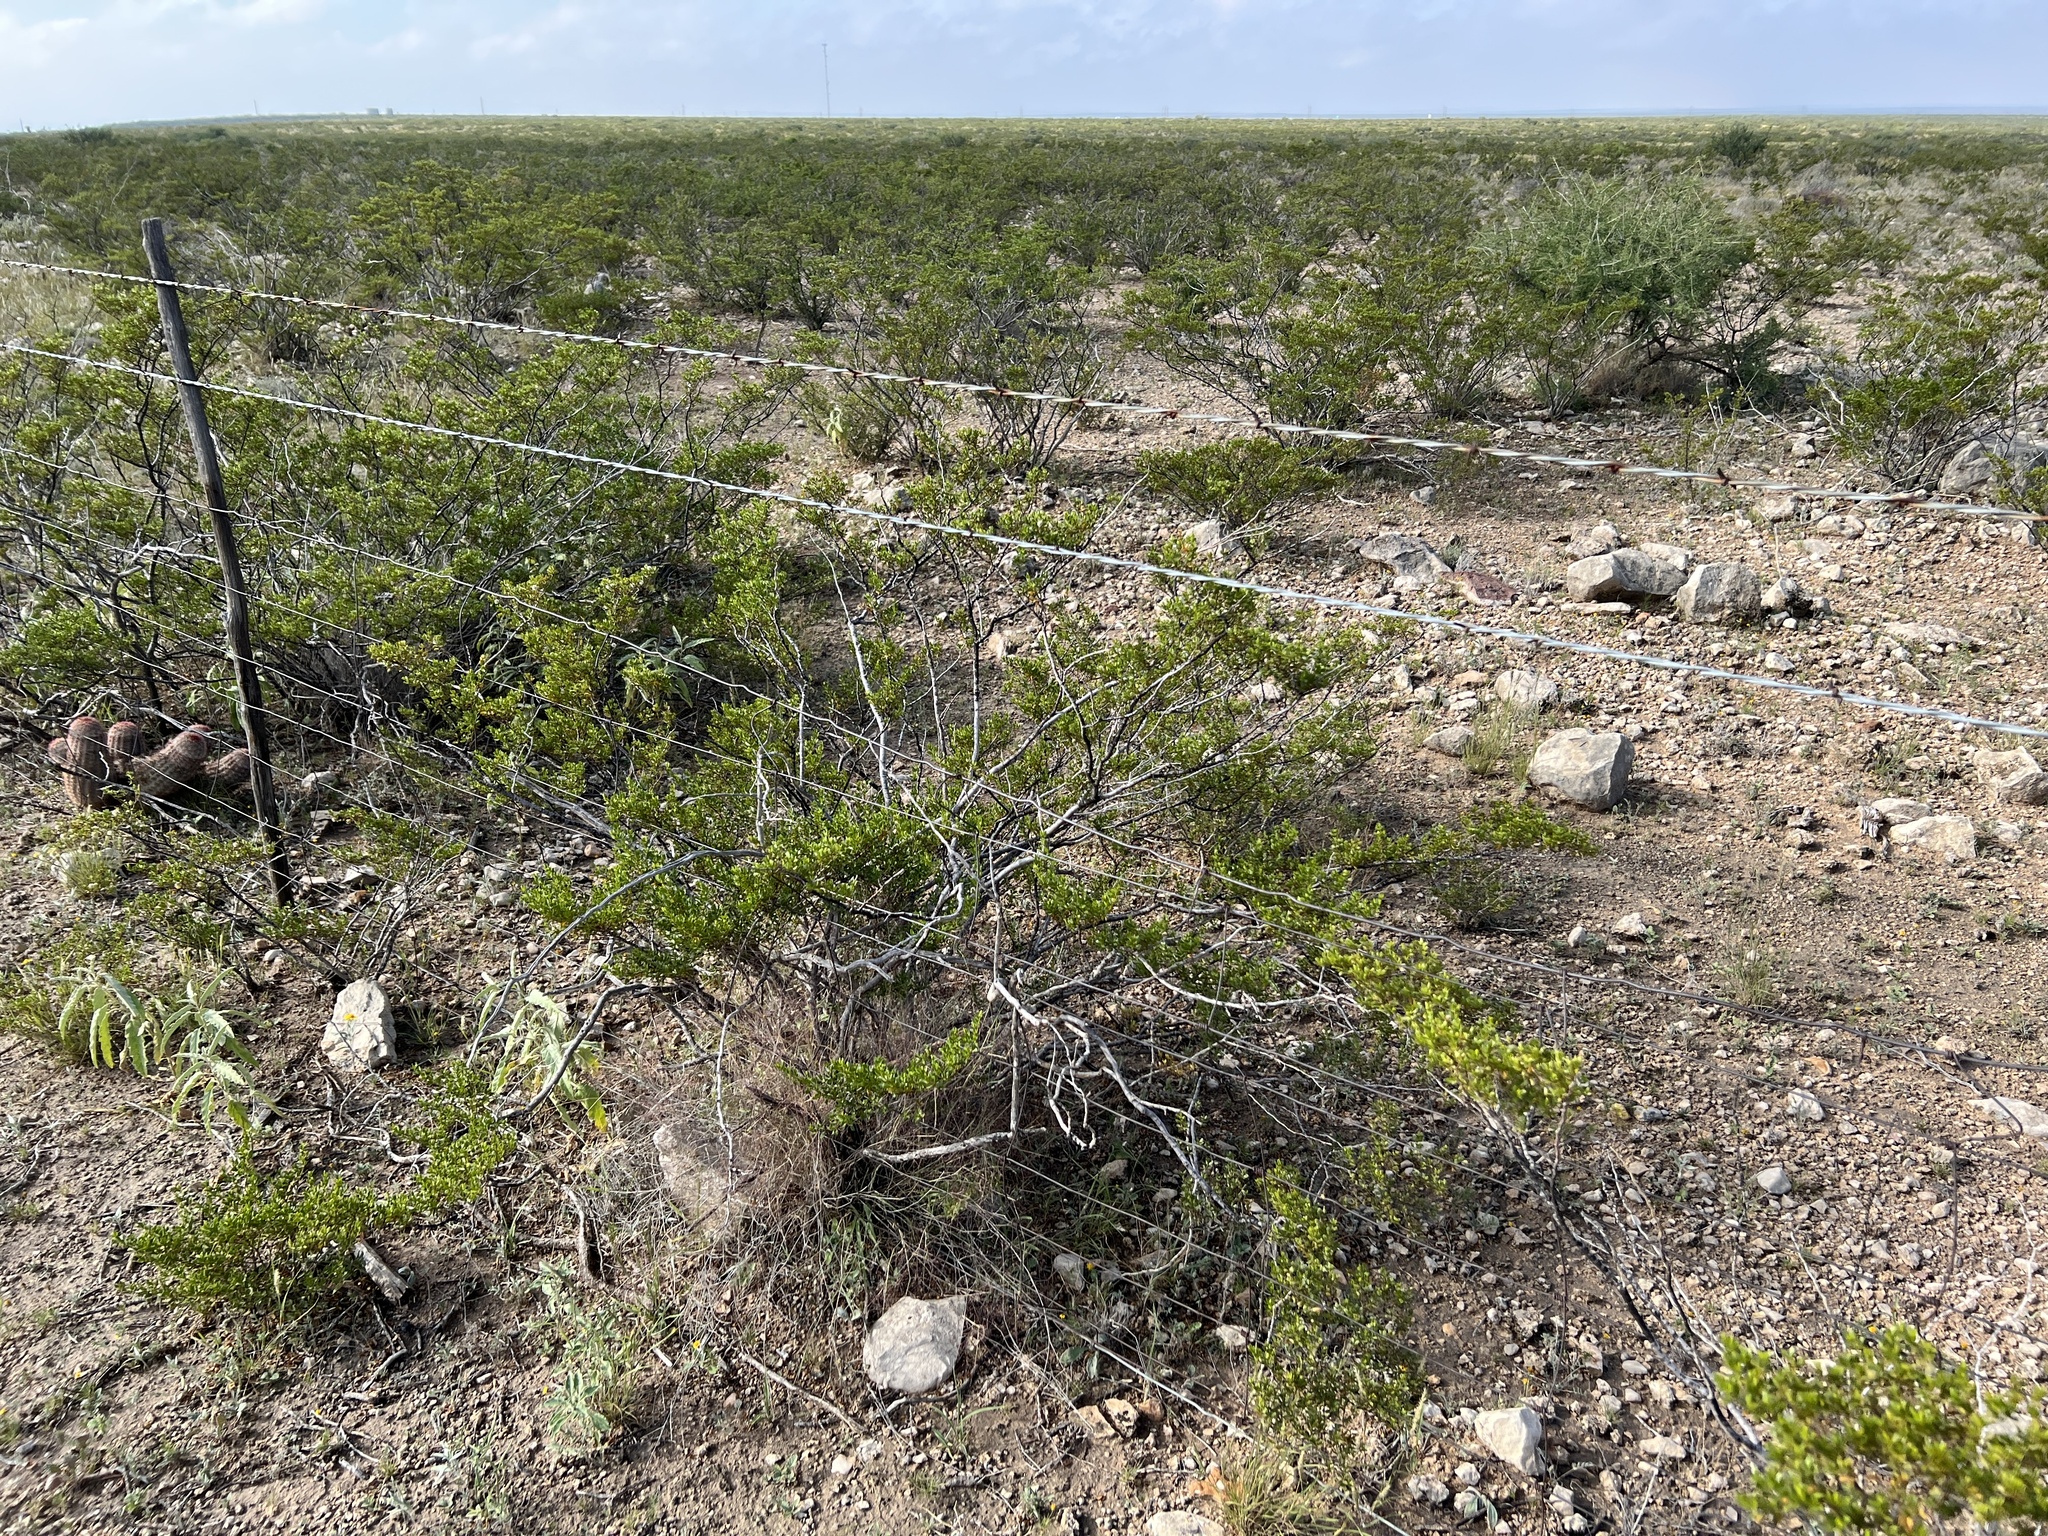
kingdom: Plantae
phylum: Tracheophyta
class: Magnoliopsida
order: Zygophyllales
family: Zygophyllaceae
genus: Larrea
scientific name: Larrea tridentata
